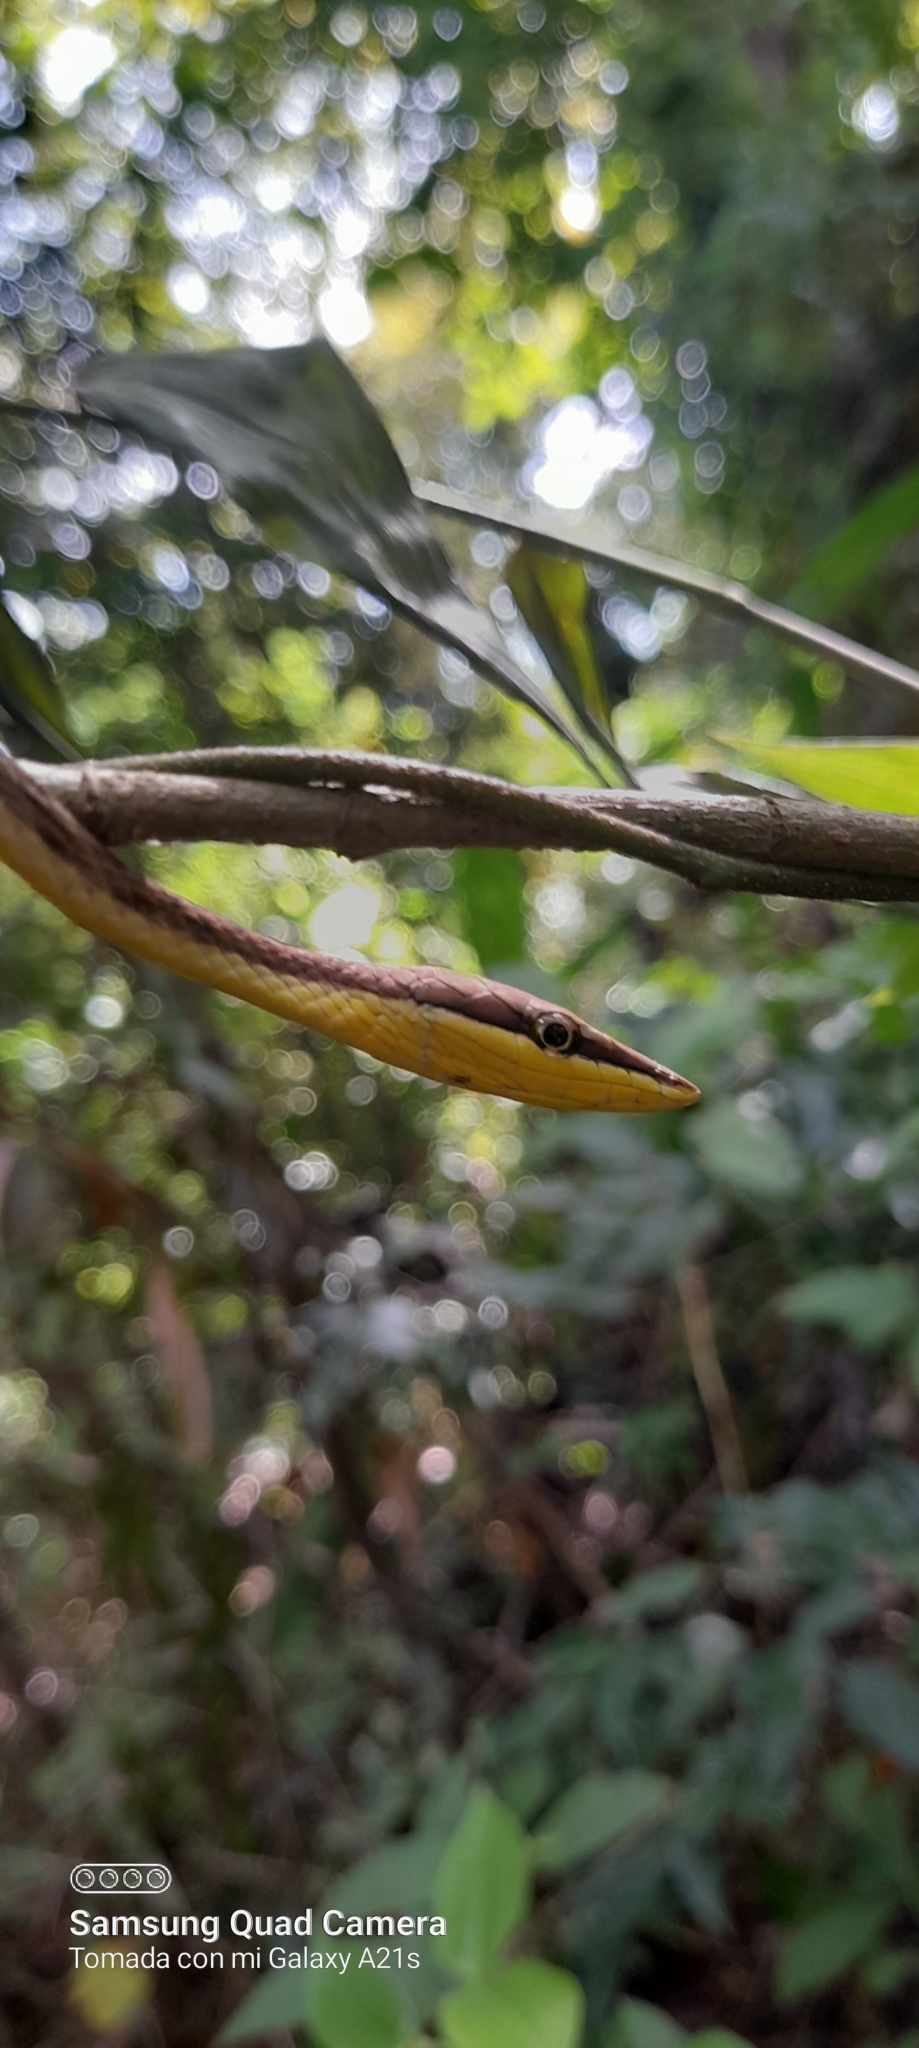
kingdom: Animalia
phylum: Chordata
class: Squamata
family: Colubridae
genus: Oxybelis
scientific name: Oxybelis vittatus
